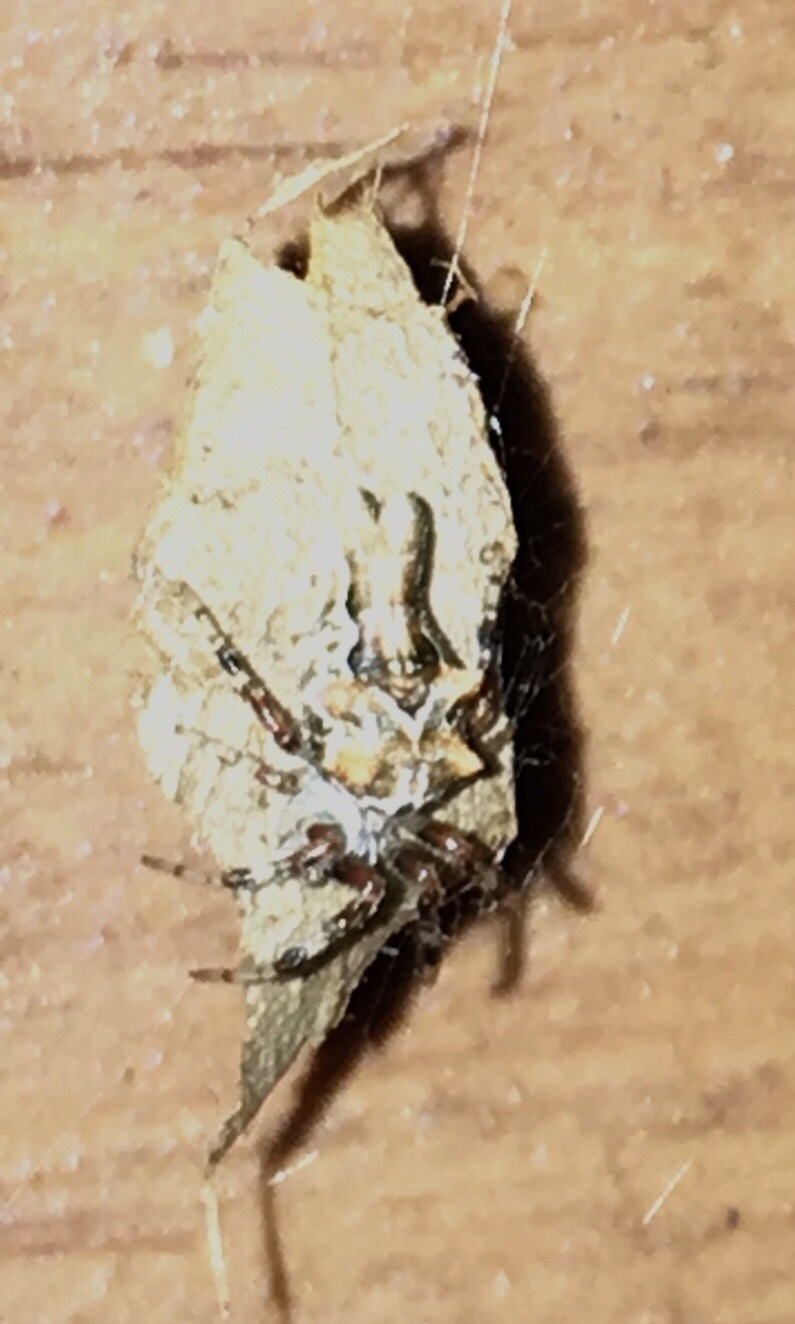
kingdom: Animalia
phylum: Arthropoda
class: Arachnida
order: Araneae
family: Araneidae
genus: Allocyclosa
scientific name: Allocyclosa bifurca
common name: Orb weavers
